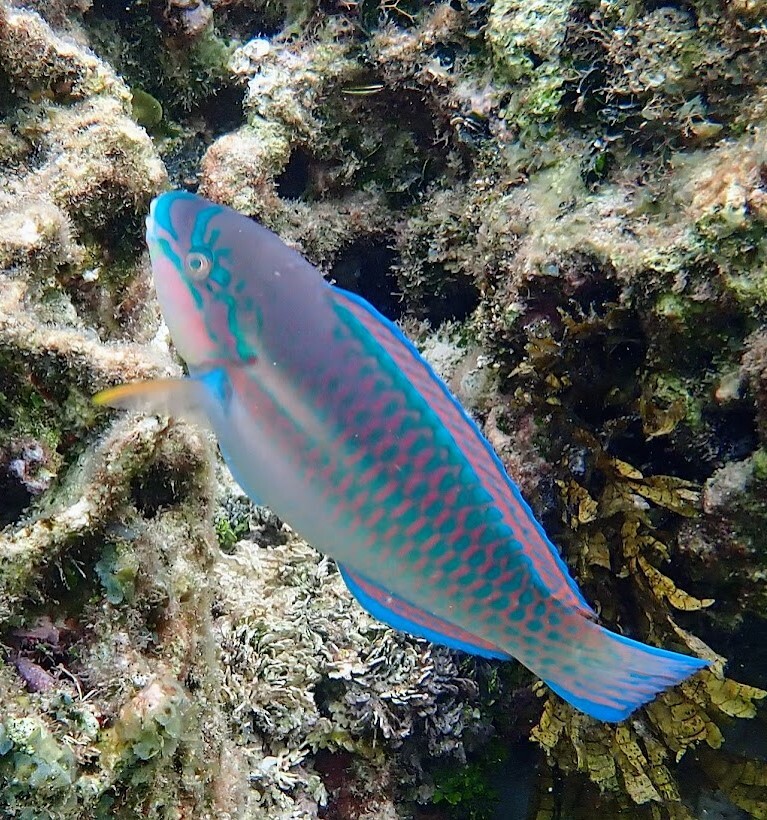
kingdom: Animalia
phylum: Chordata
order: Perciformes
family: Scaridae
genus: Scarus
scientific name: Scarus iseri
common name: Striped parrotfish
